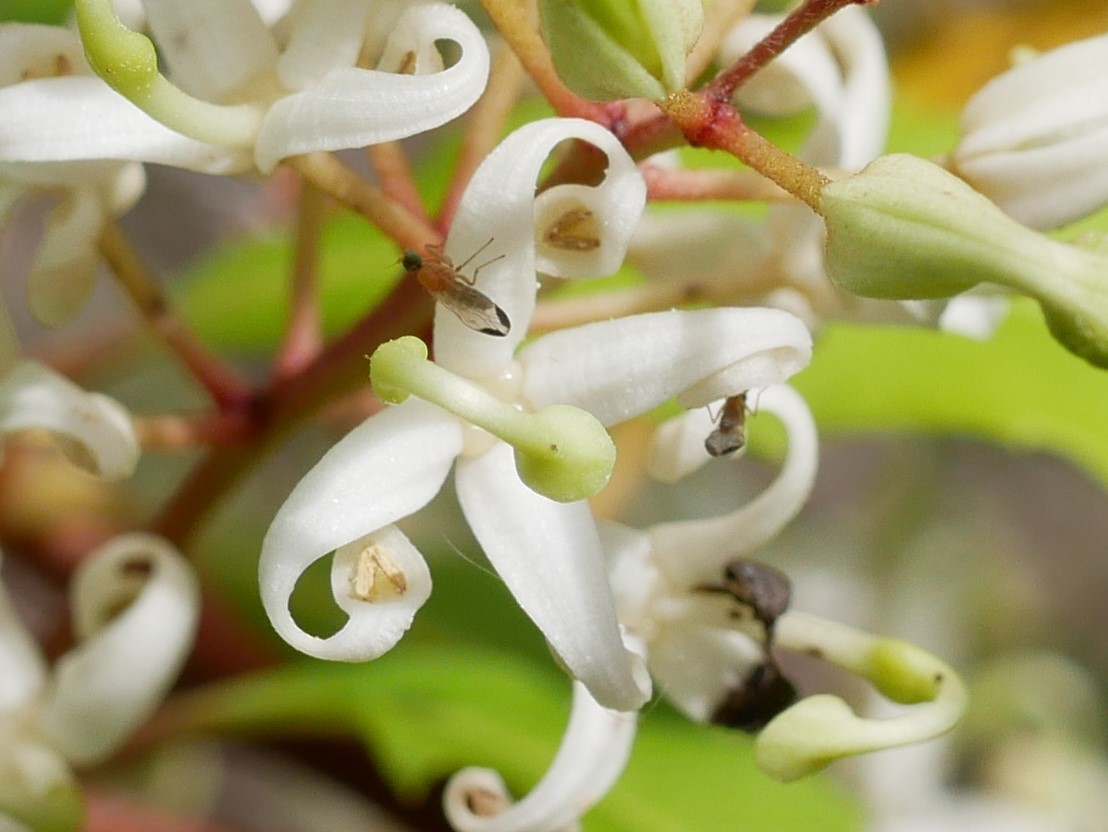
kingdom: Animalia
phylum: Arthropoda
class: Insecta
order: Diptera
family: Empididae
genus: Phyllodromia
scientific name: Phyllodromia flexura
